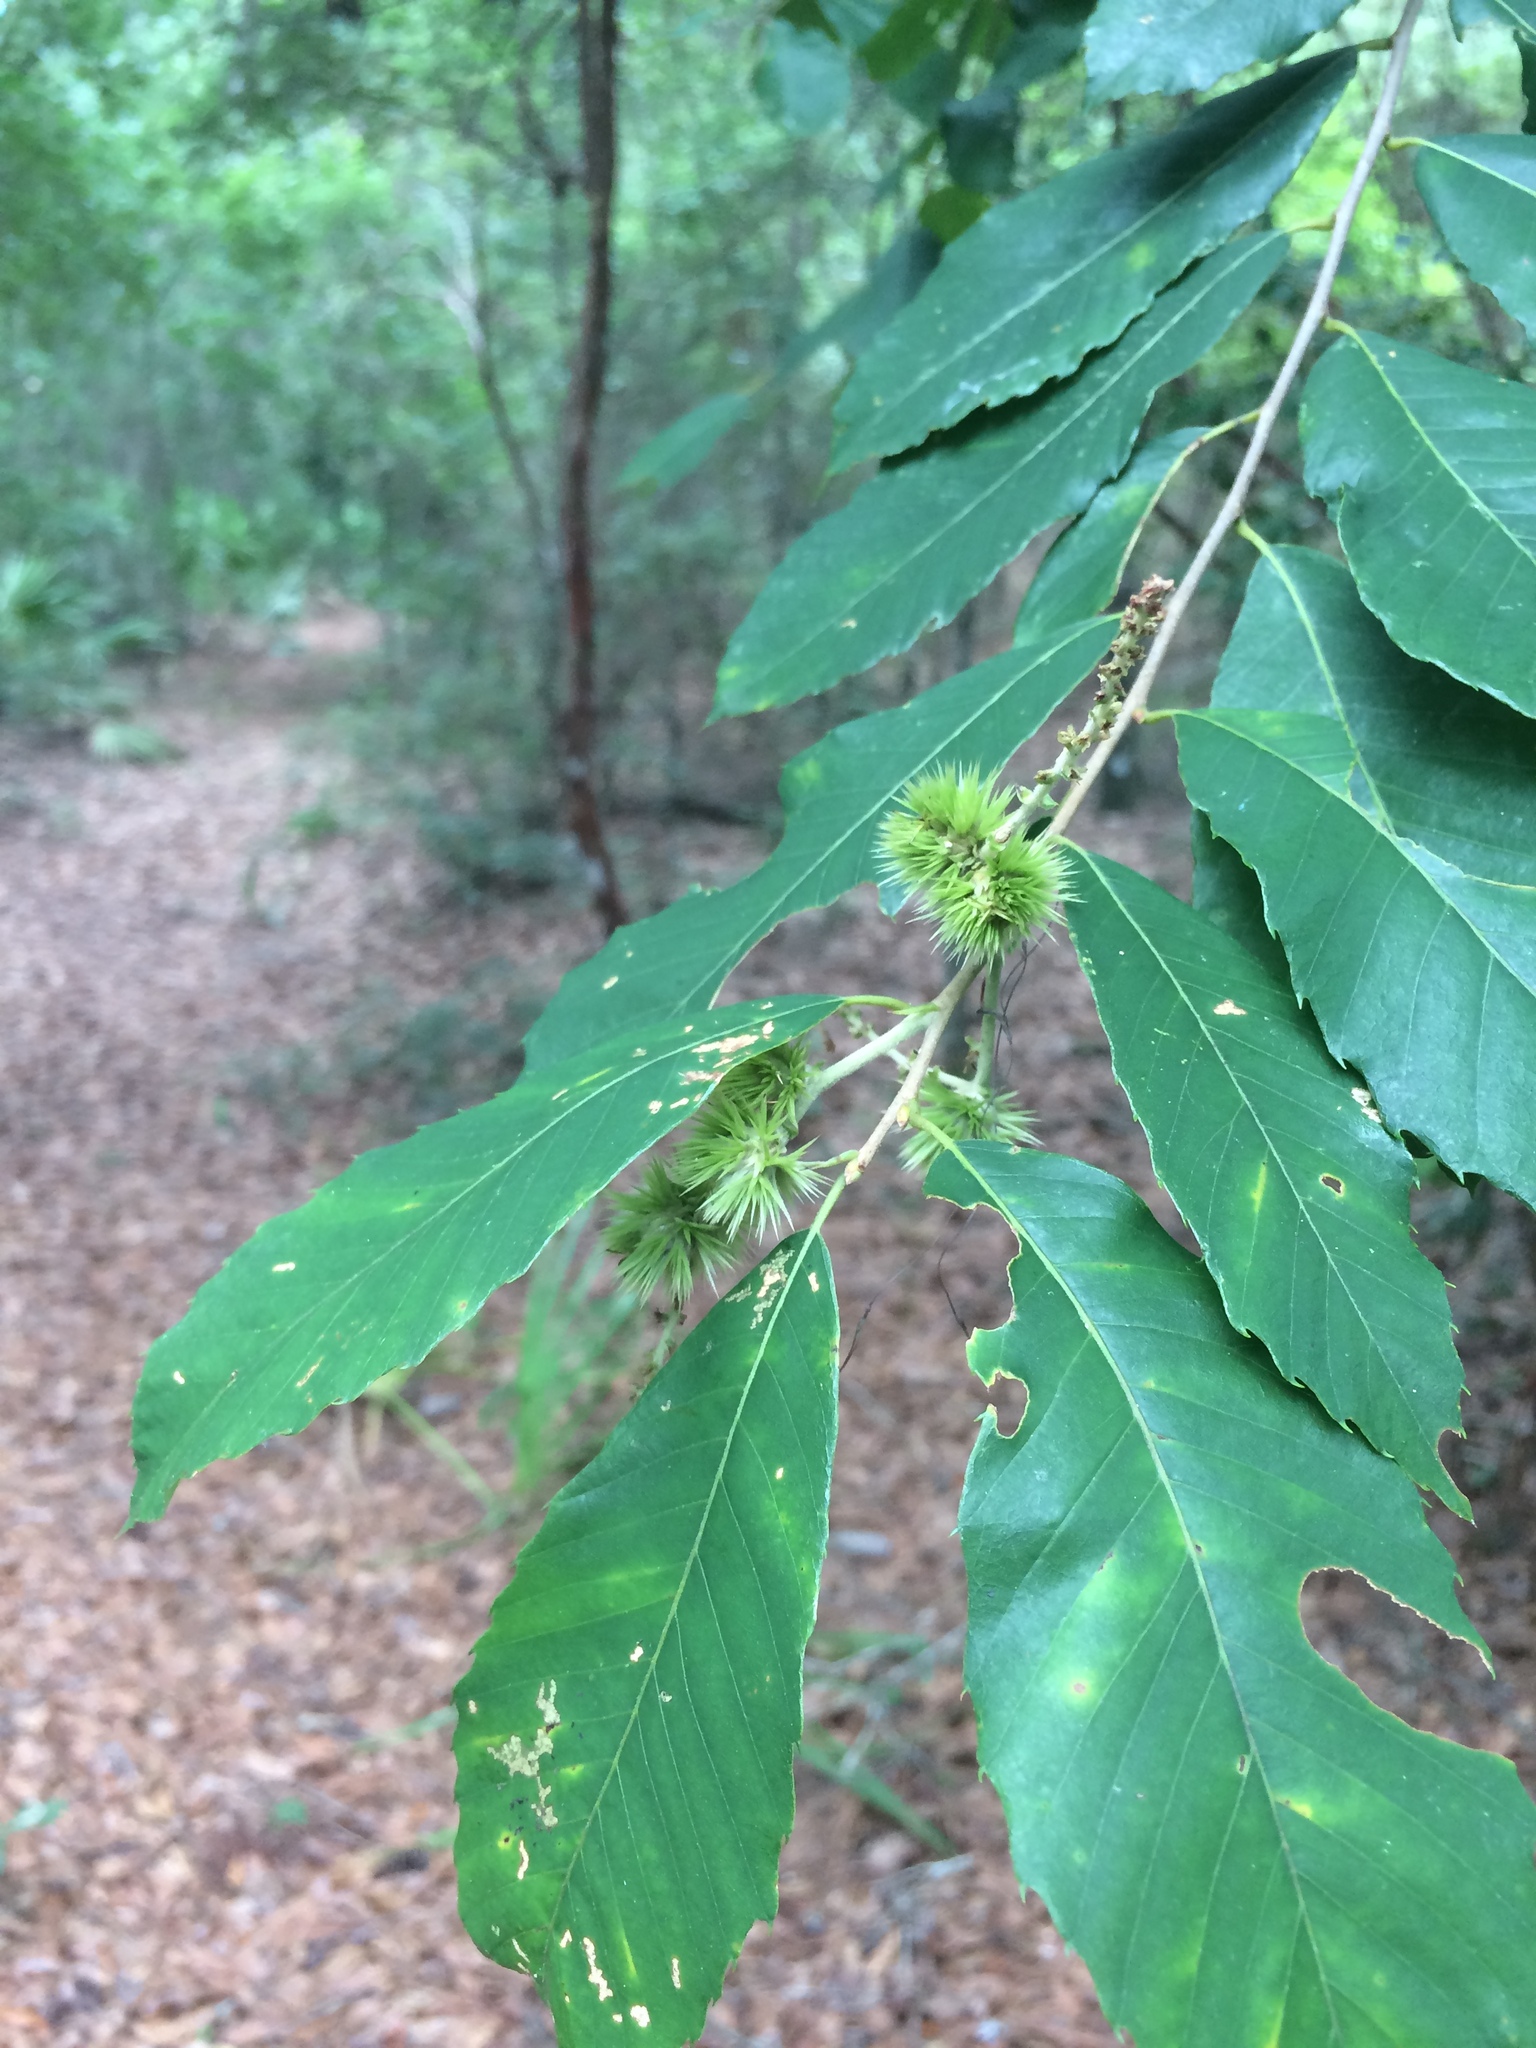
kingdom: Plantae
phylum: Tracheophyta
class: Magnoliopsida
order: Fagales
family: Fagaceae
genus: Castanea
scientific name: Castanea pumila
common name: Chinkapin
